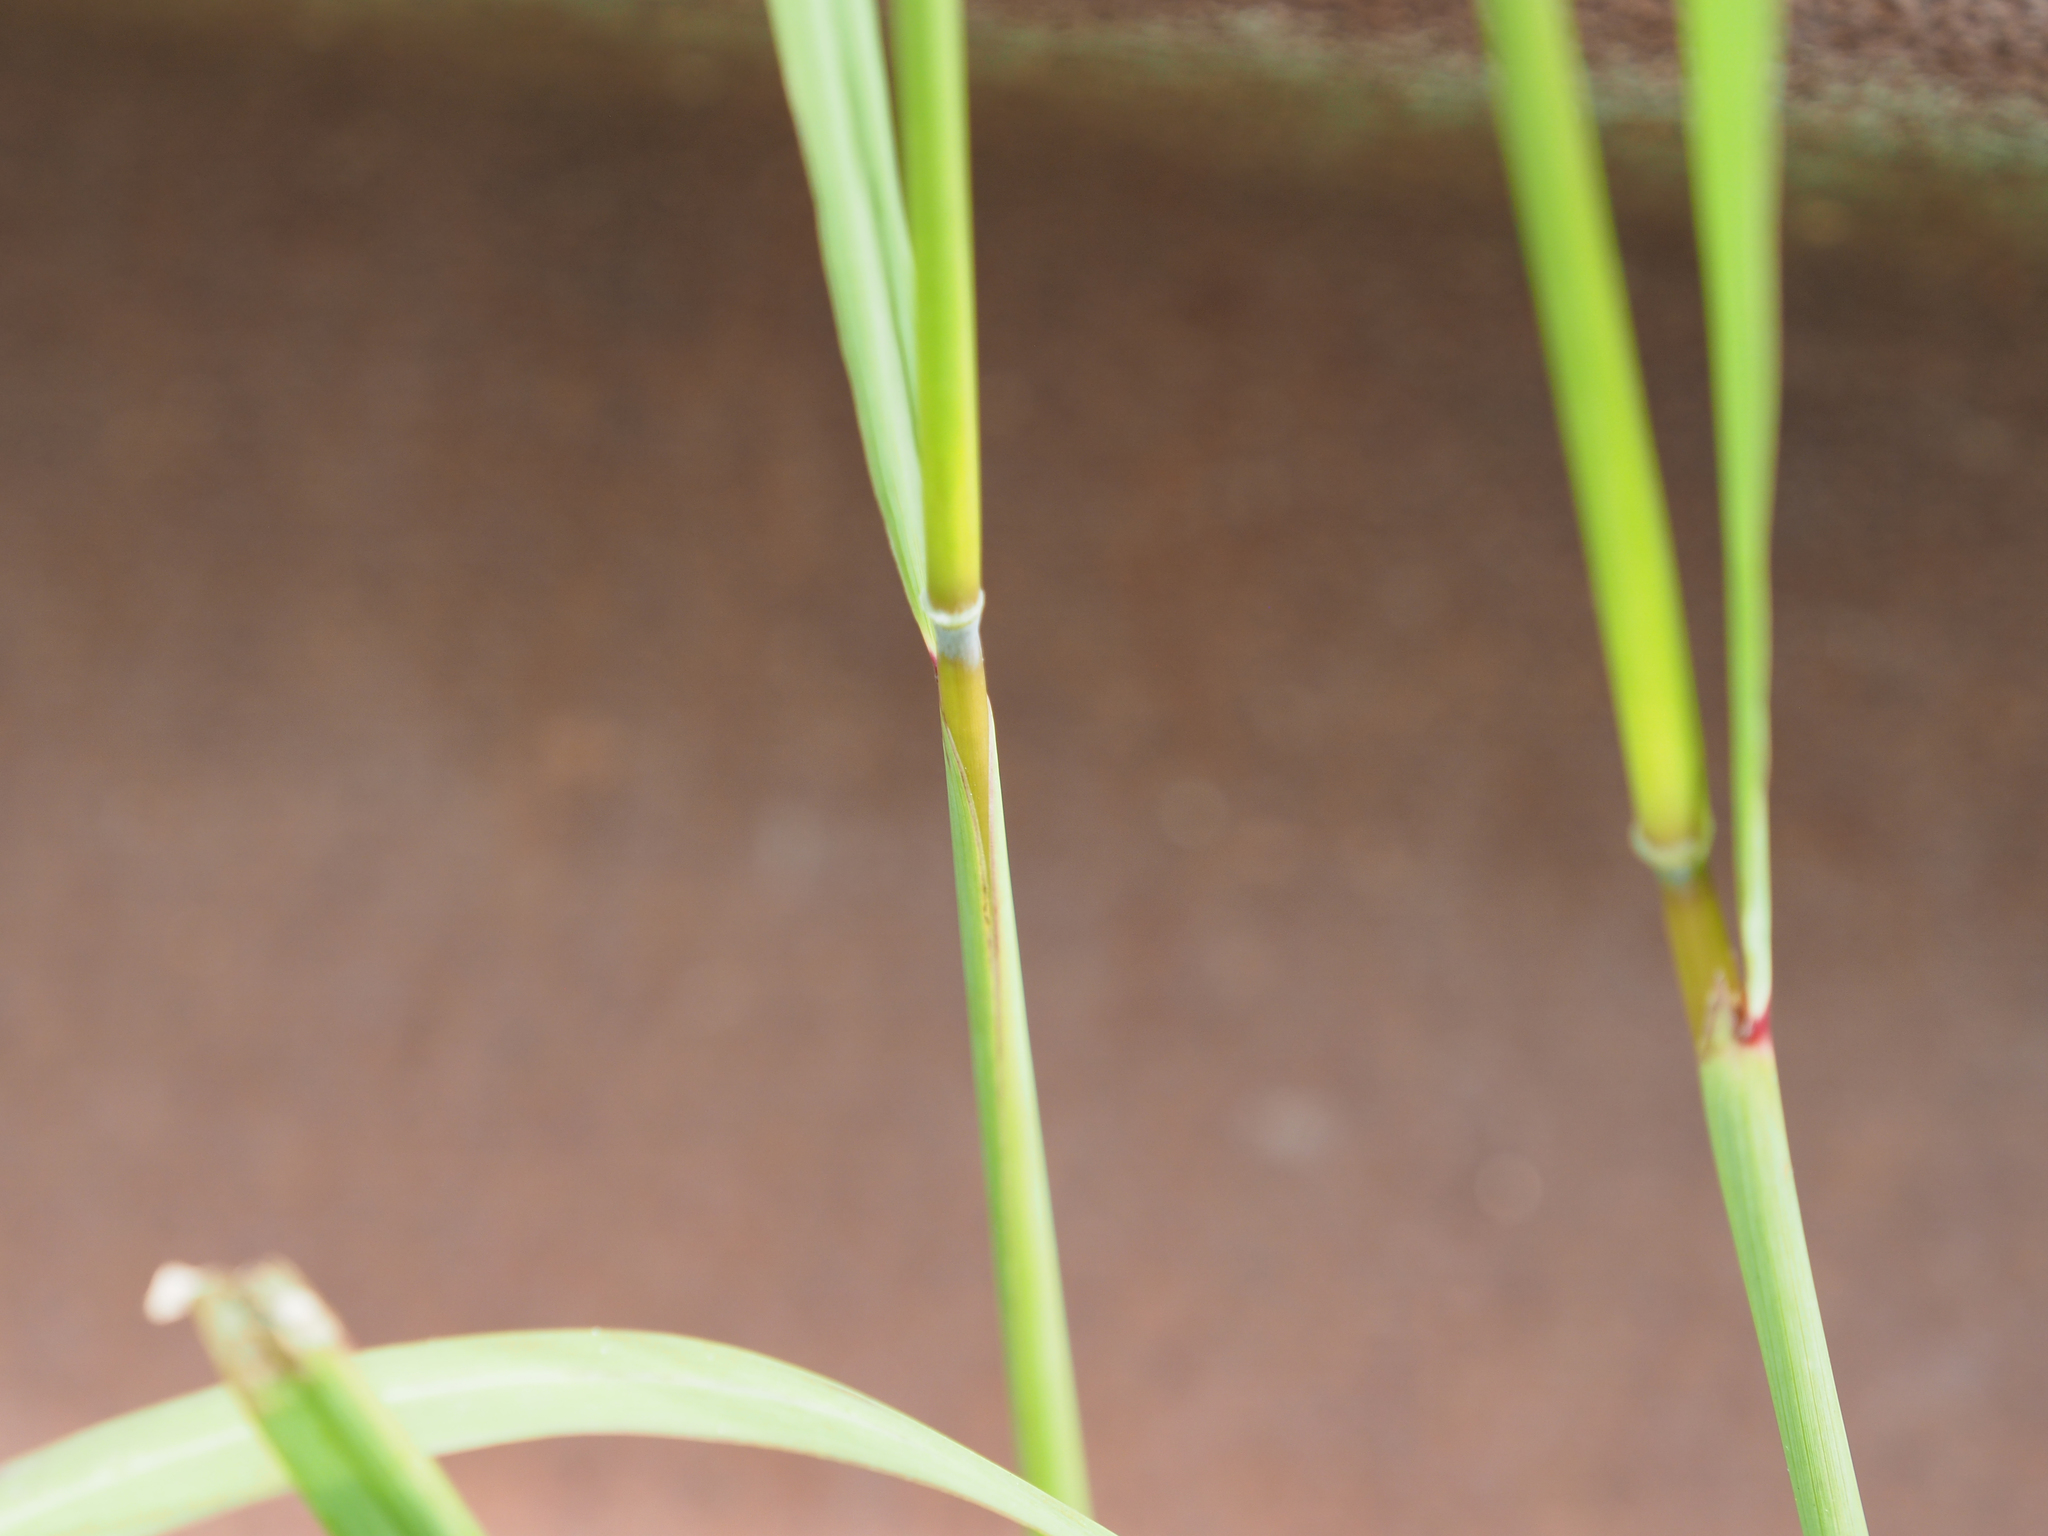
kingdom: Plantae
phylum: Tracheophyta
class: Liliopsida
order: Poales
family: Poaceae
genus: Sorghastrum
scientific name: Sorghastrum nutans
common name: Indian grass
